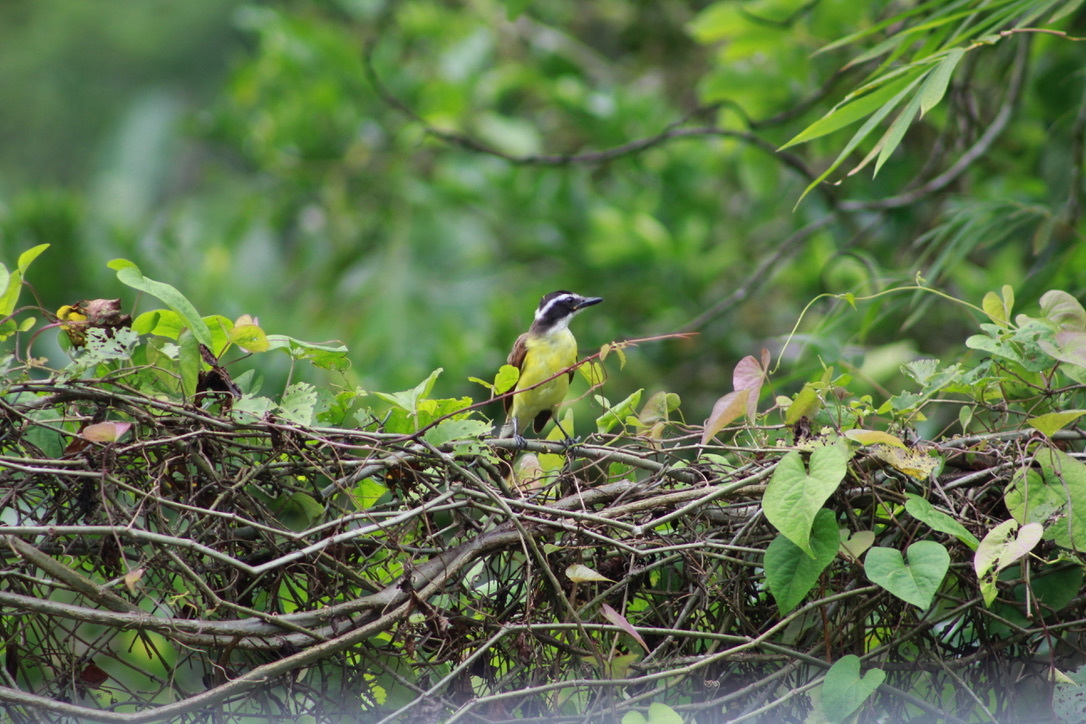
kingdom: Animalia
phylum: Chordata
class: Aves
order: Passeriformes
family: Tyrannidae
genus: Pitangus
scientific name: Pitangus sulphuratus
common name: Great kiskadee
